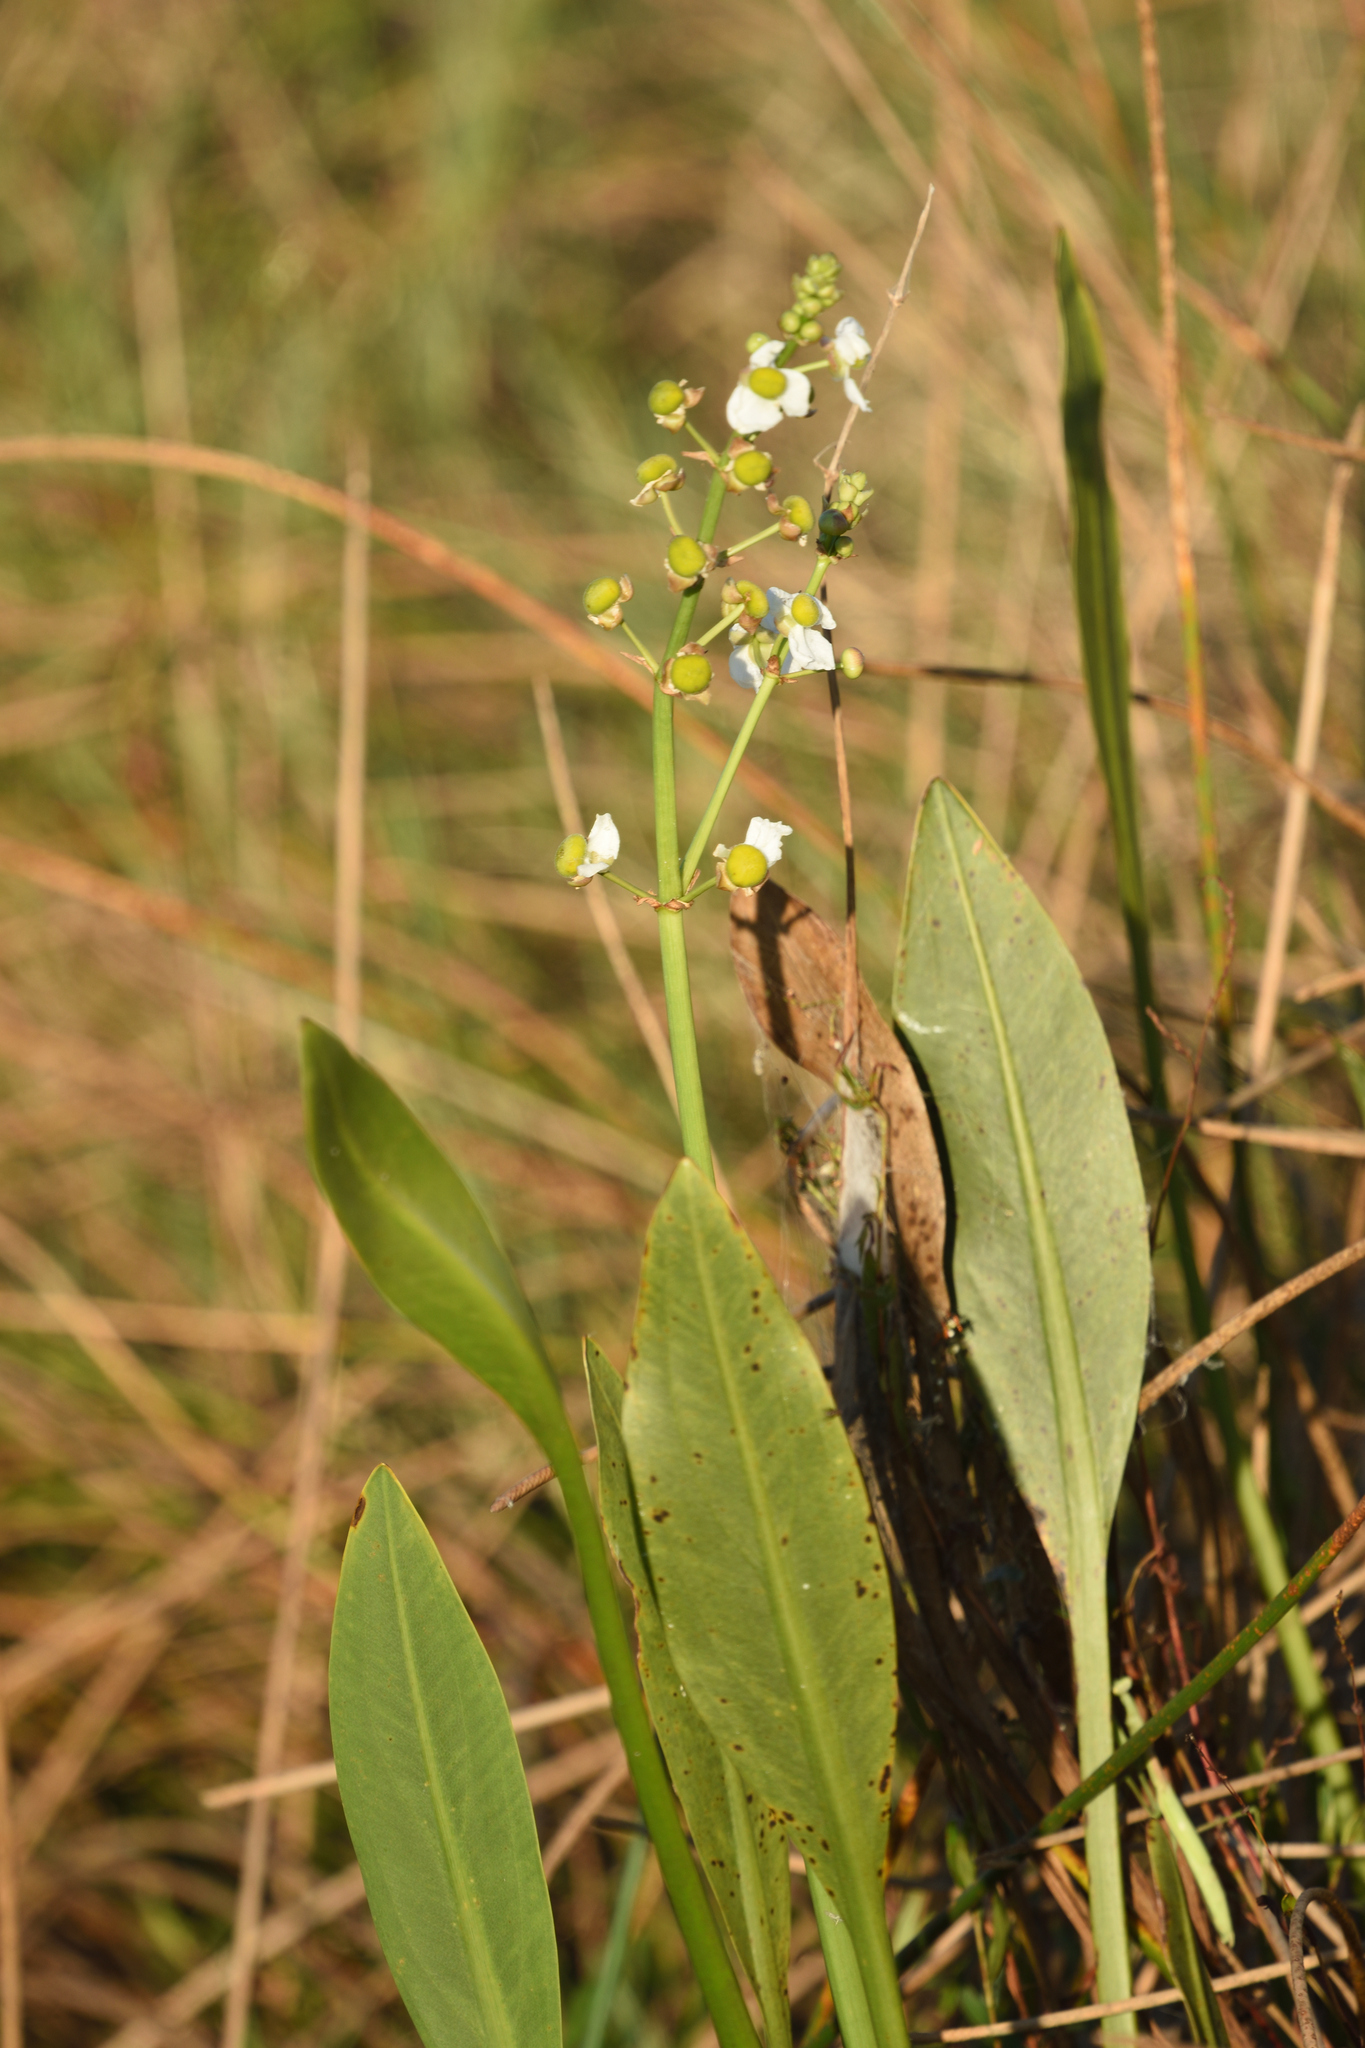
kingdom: Plantae
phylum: Tracheophyta
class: Liliopsida
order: Alismatales
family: Alismataceae
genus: Sagittaria
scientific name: Sagittaria lancifolia
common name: Lance-leaf arrowhead
